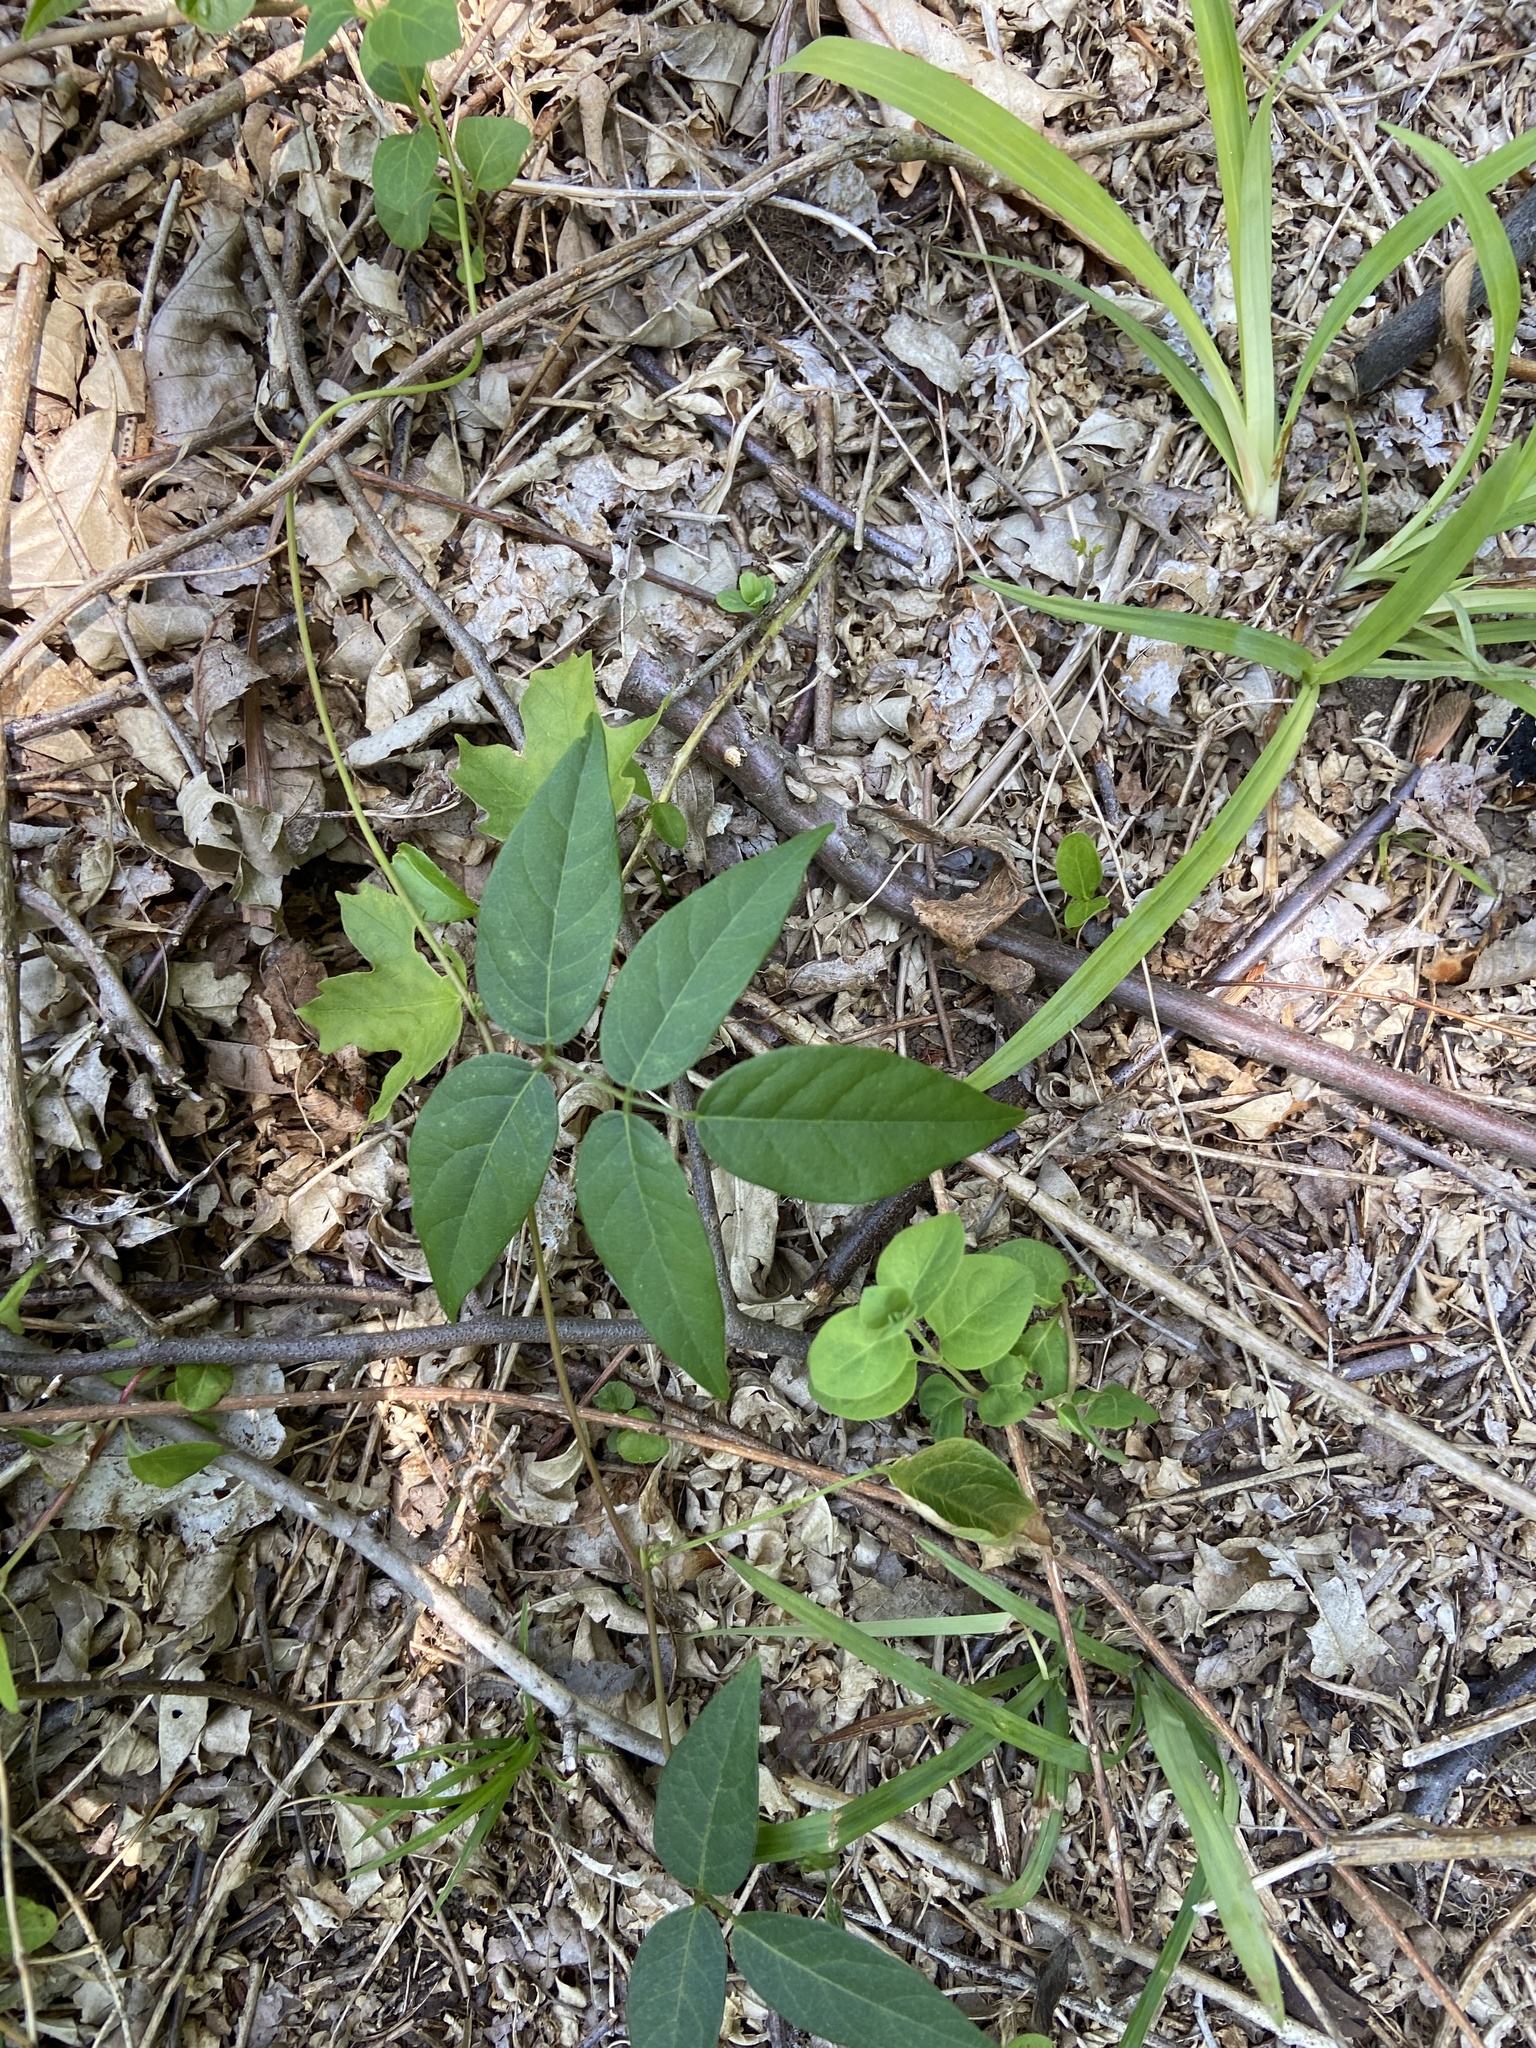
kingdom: Plantae
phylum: Tracheophyta
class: Magnoliopsida
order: Fabales
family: Fabaceae
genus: Apios
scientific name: Apios americana
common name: American potato-bean
